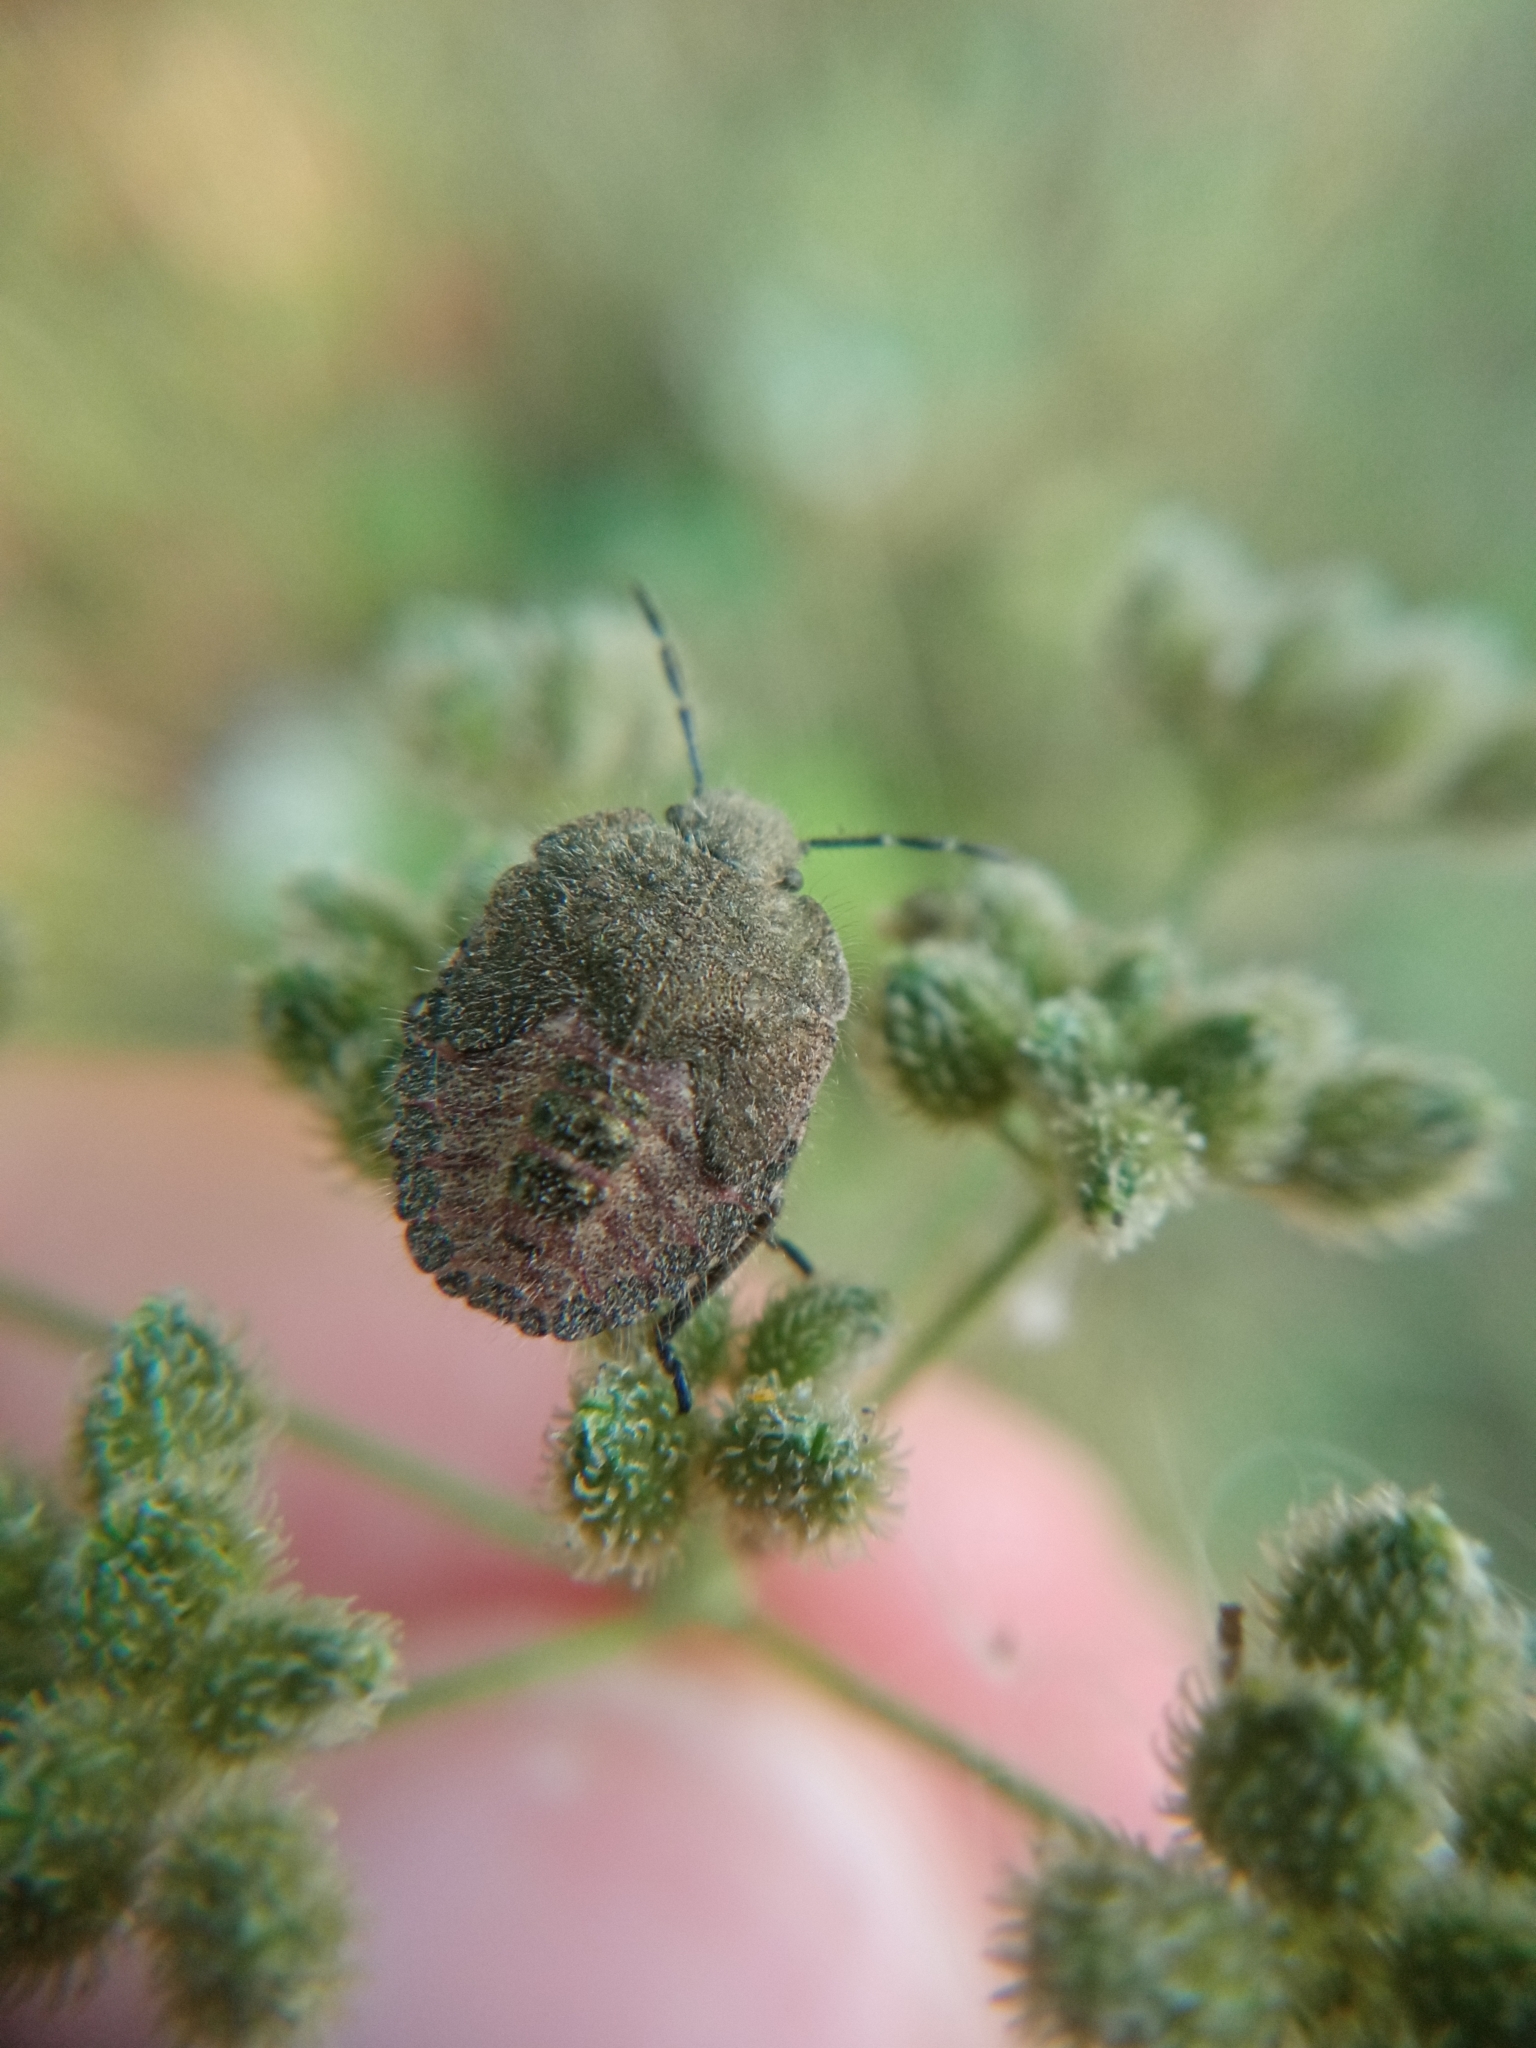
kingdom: Animalia
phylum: Arthropoda
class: Insecta
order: Hemiptera
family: Pentatomidae
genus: Dolycoris
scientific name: Dolycoris baccarum
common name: Sloe bug
